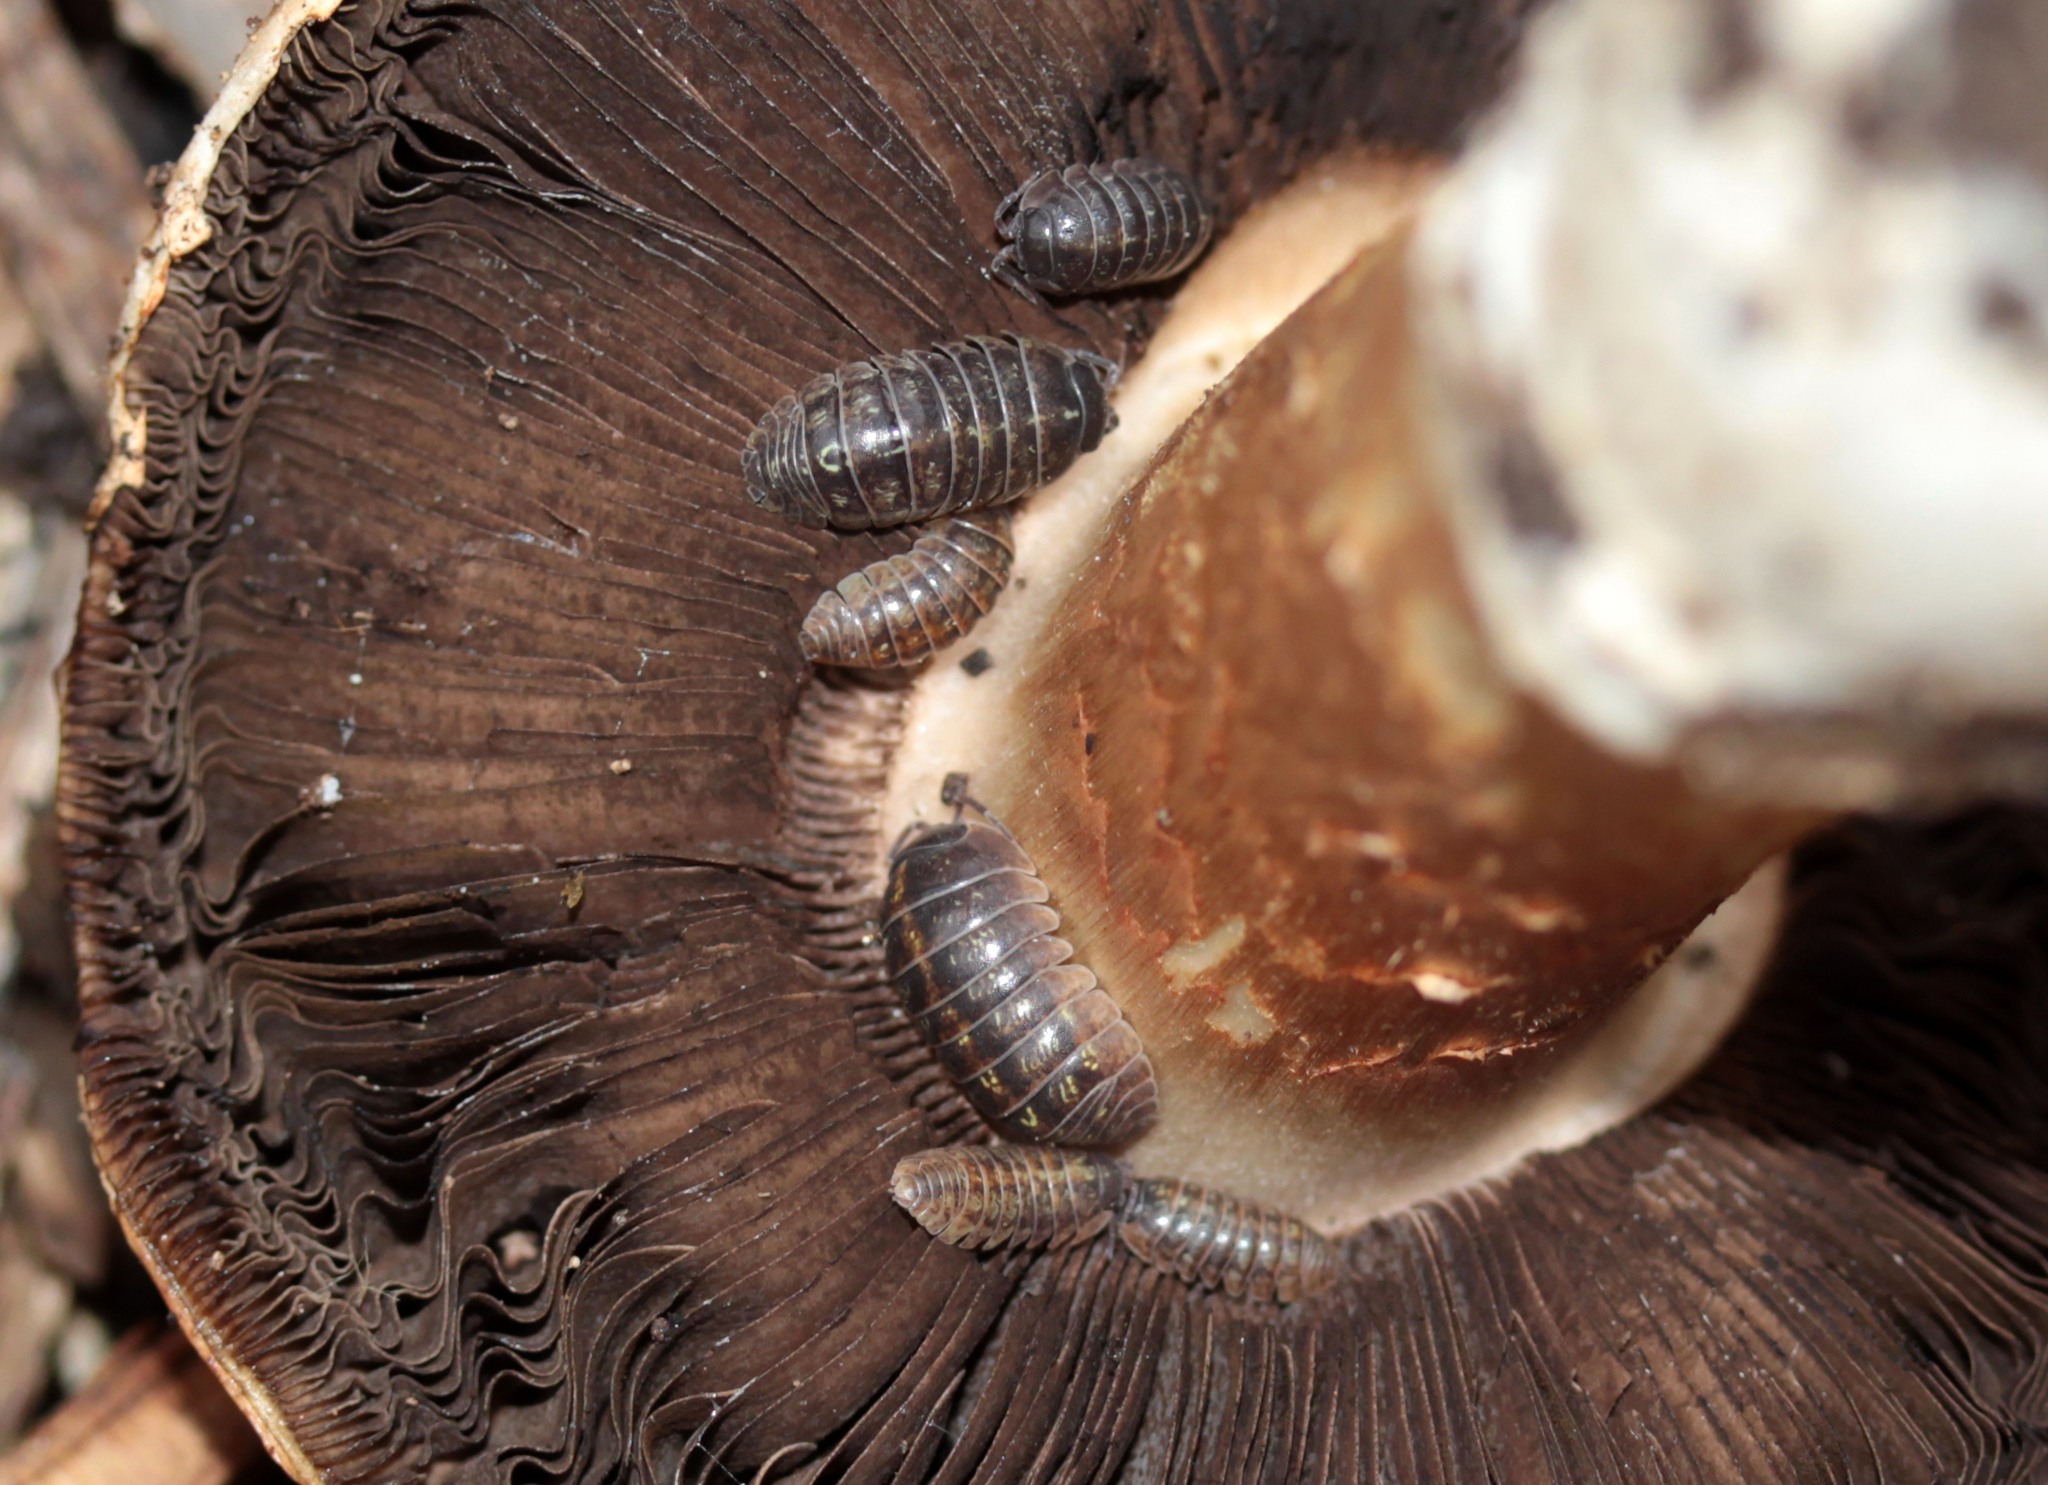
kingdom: Animalia
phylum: Arthropoda
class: Malacostraca
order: Isopoda
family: Armadillidiidae
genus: Armadillidium
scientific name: Armadillidium vulgare
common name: Common pill woodlouse
